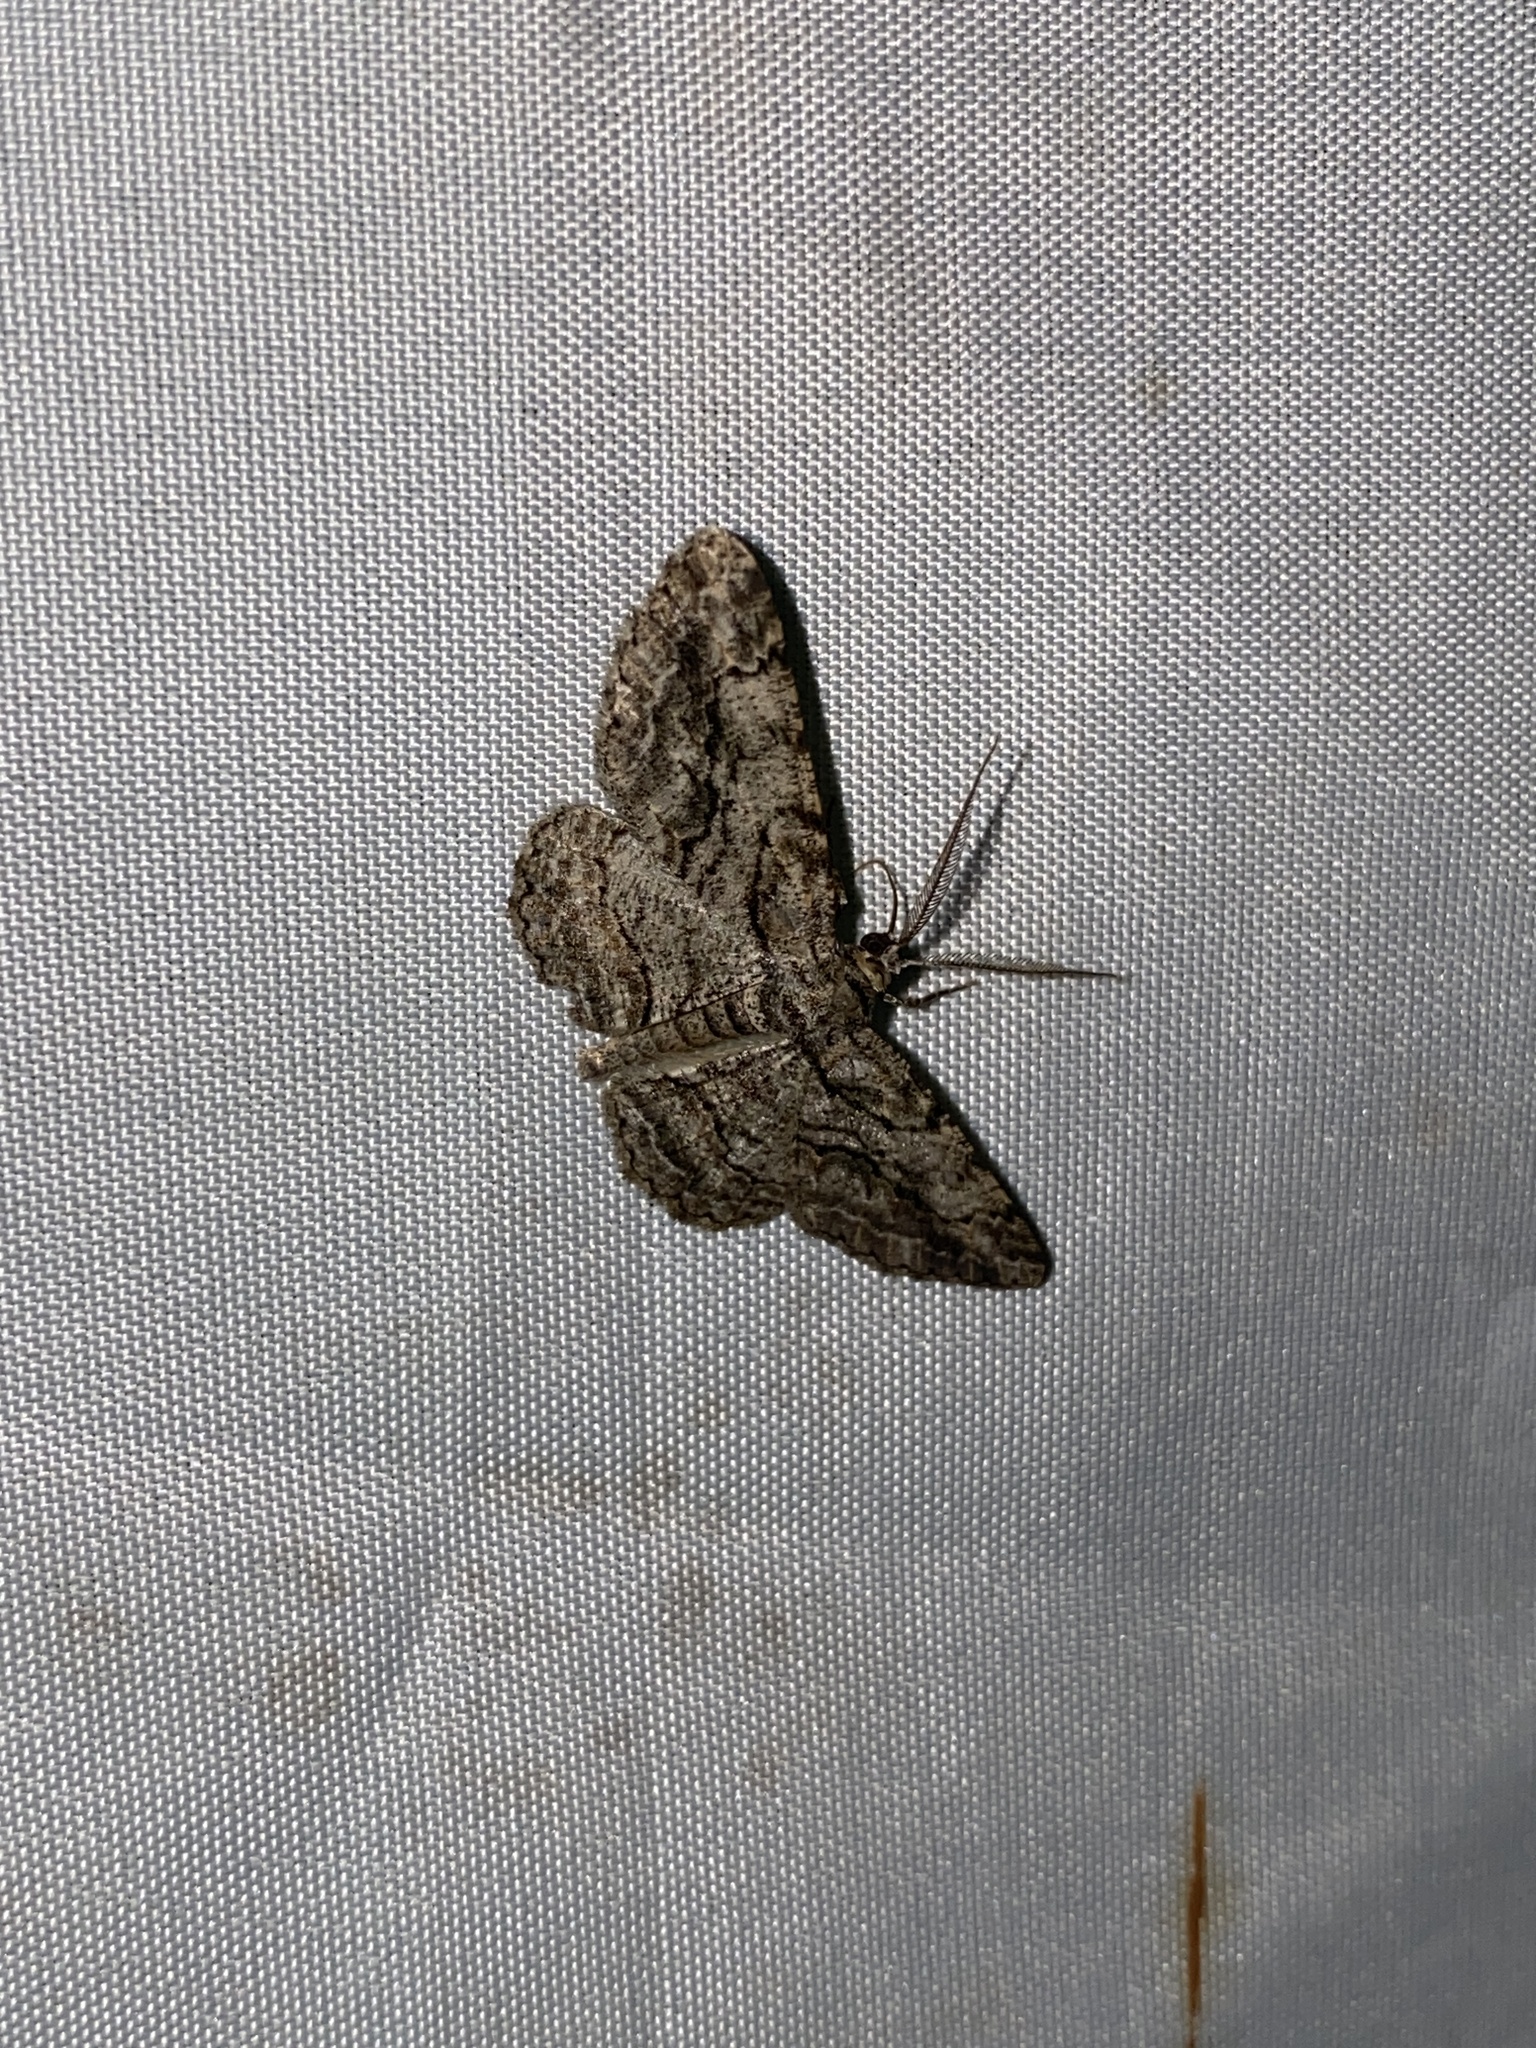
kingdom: Animalia
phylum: Arthropoda
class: Insecta
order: Lepidoptera
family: Geometridae
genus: Anavitrinella
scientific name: Anavitrinella pampinaria
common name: Common gray
